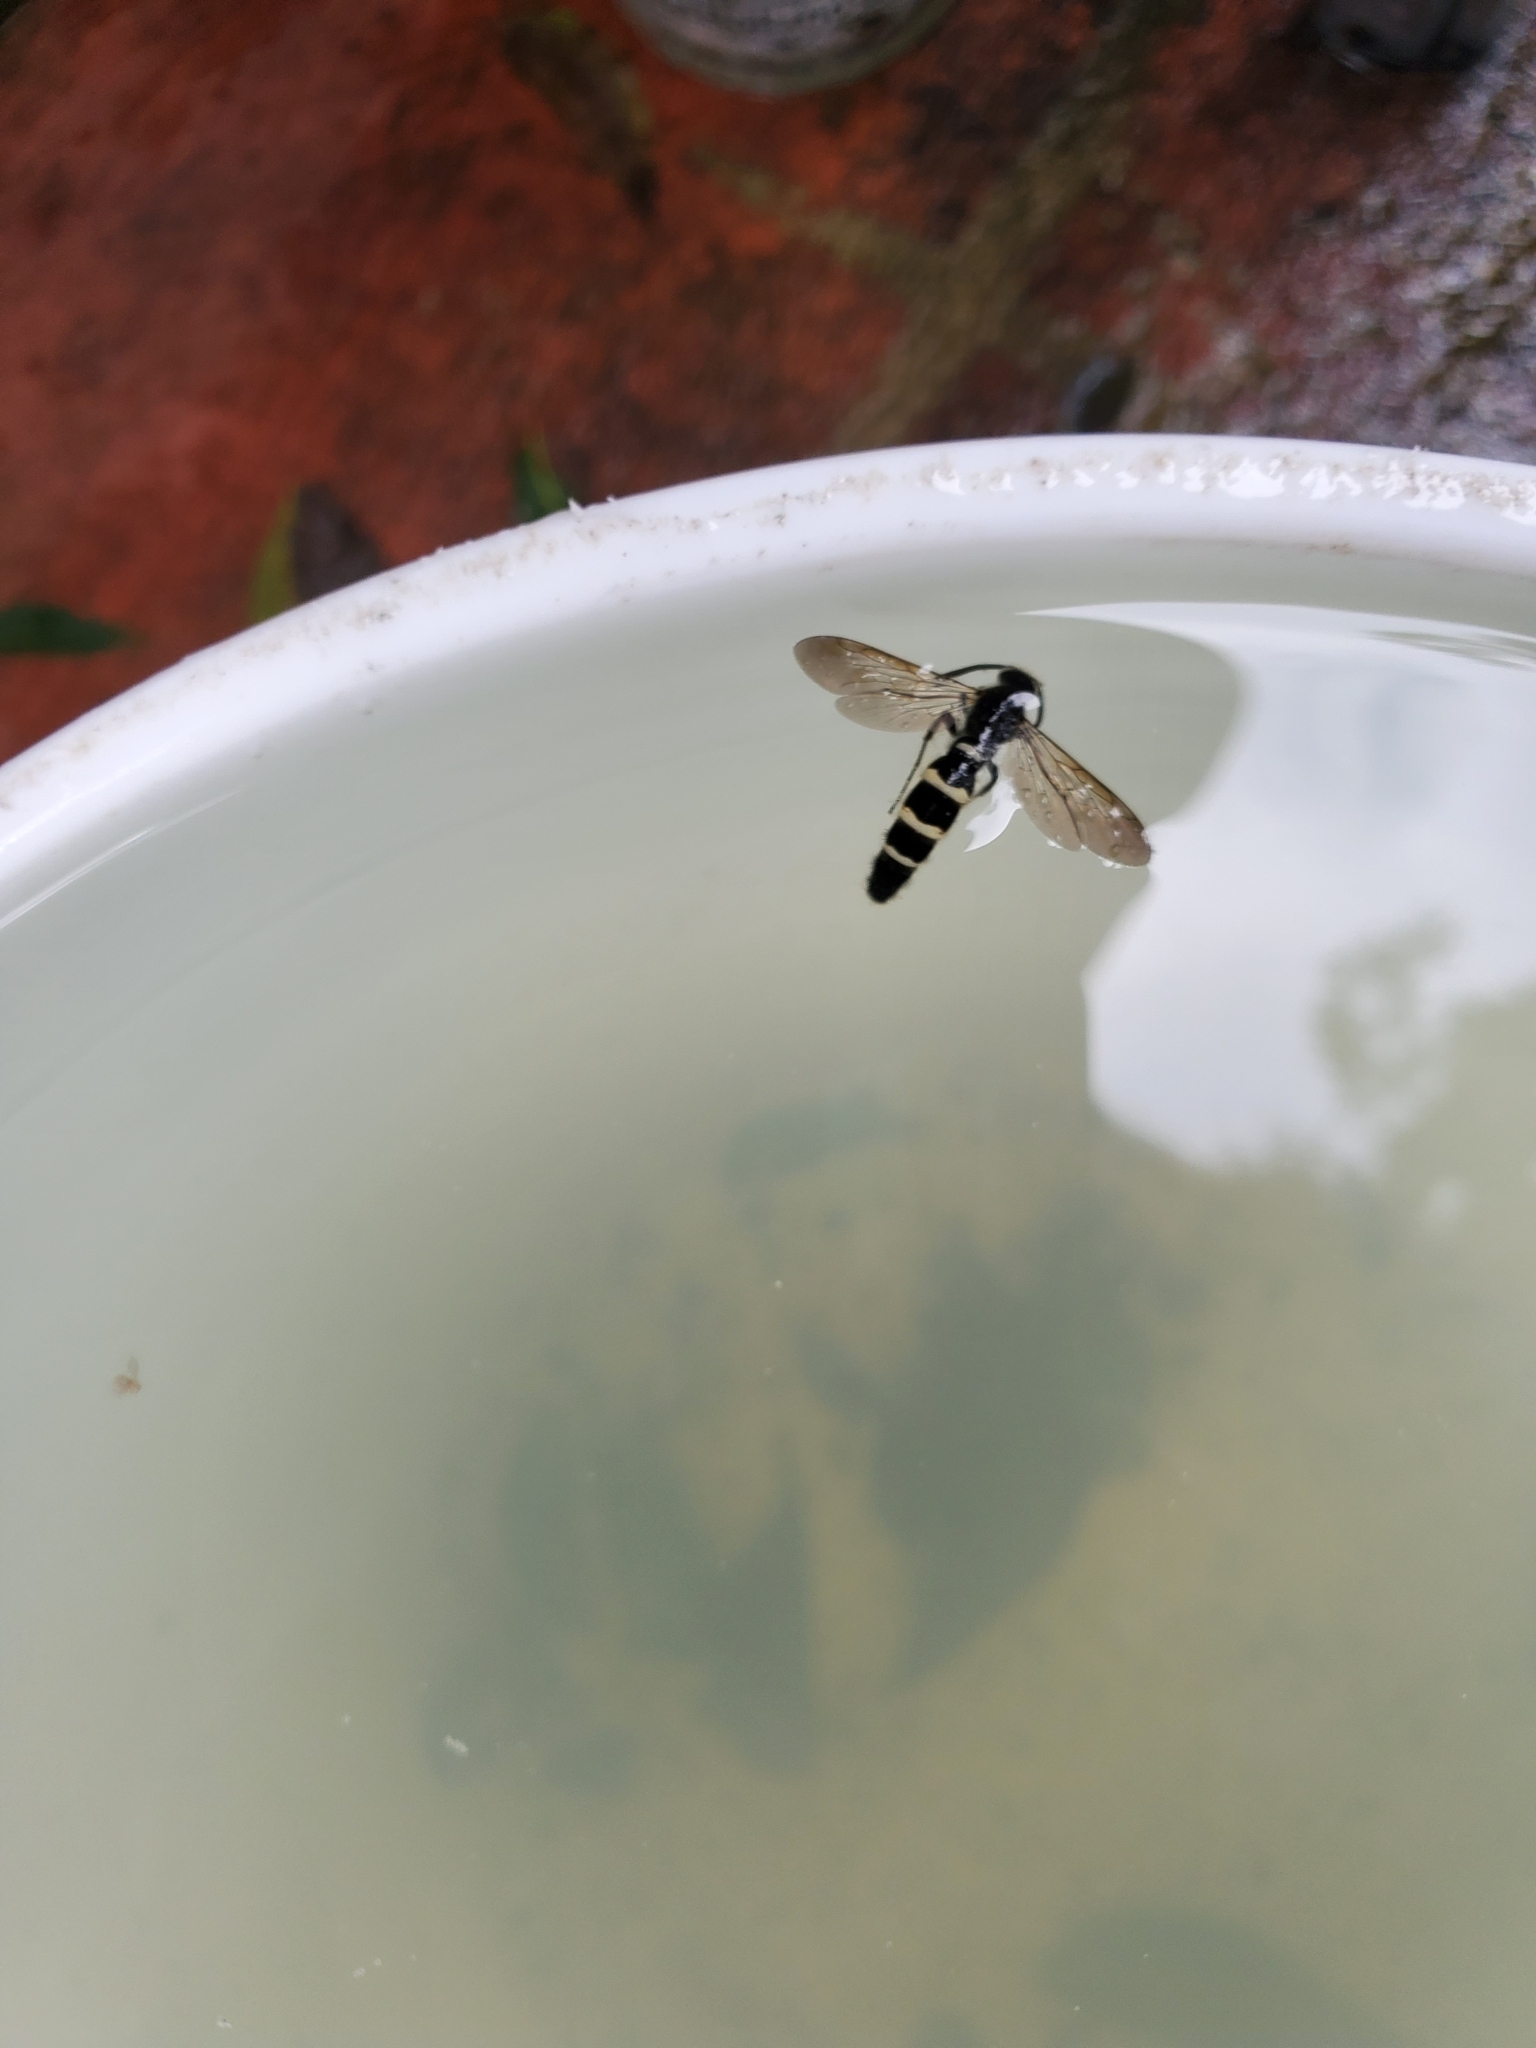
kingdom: Animalia
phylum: Arthropoda
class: Insecta
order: Hymenoptera
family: Scoliidae
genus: Dielis
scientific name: Dielis
